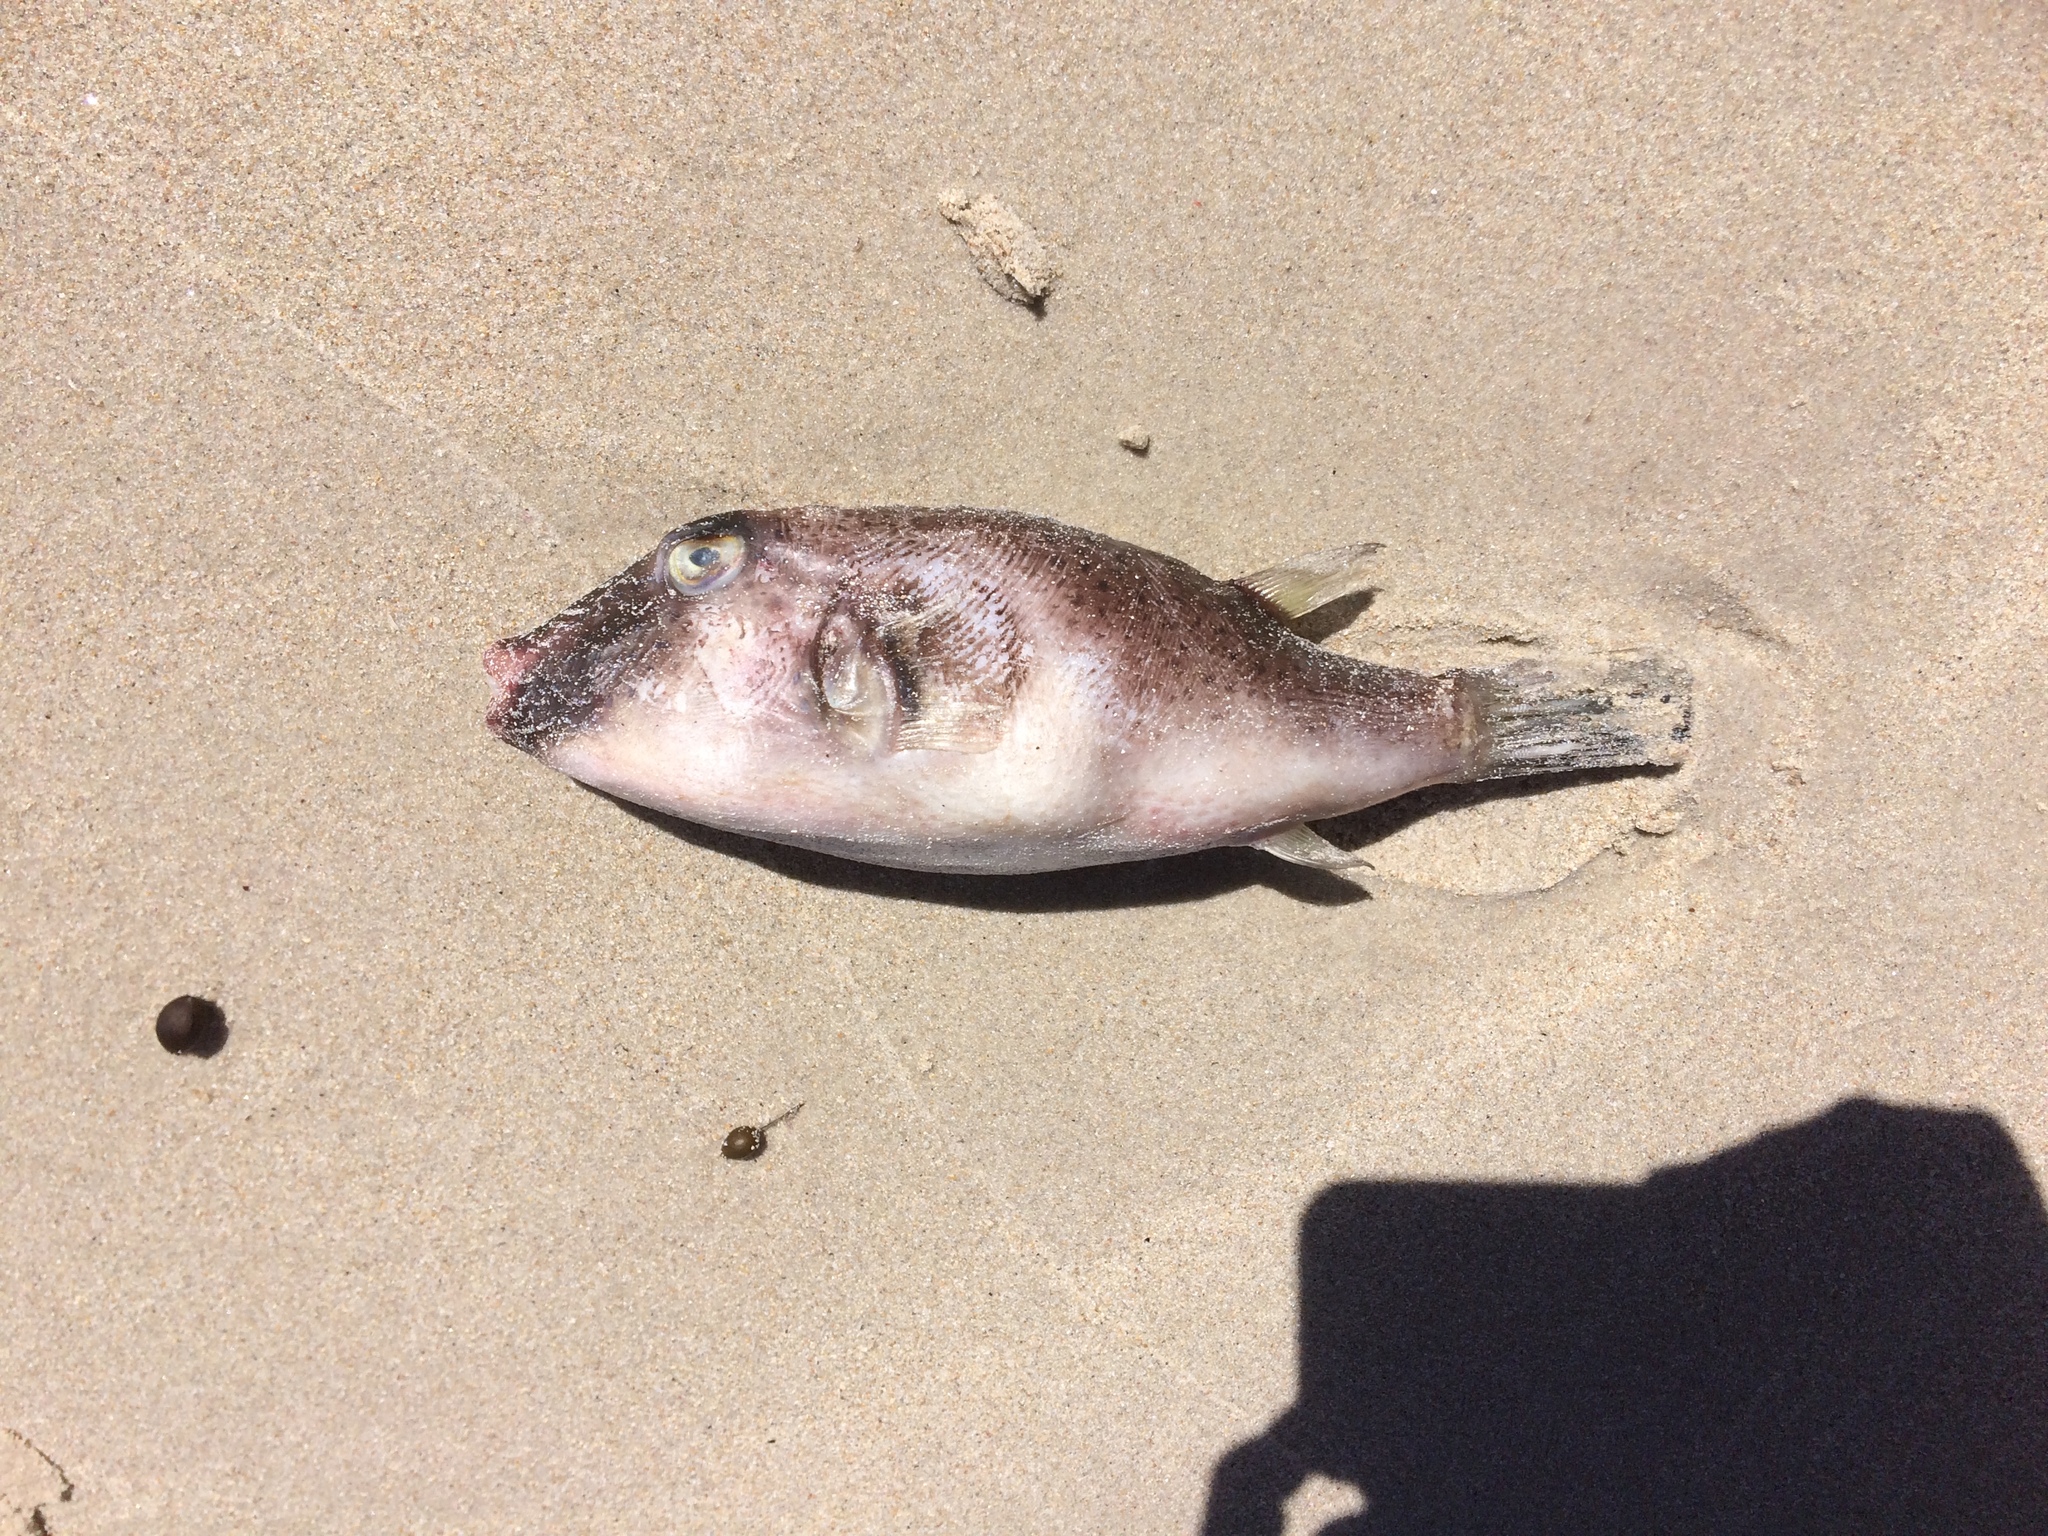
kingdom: Animalia
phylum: Chordata
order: Tetraodontiformes
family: Tetraodontidae
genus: Omegophora
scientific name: Omegophora armilla
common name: Ringed pufferfish
